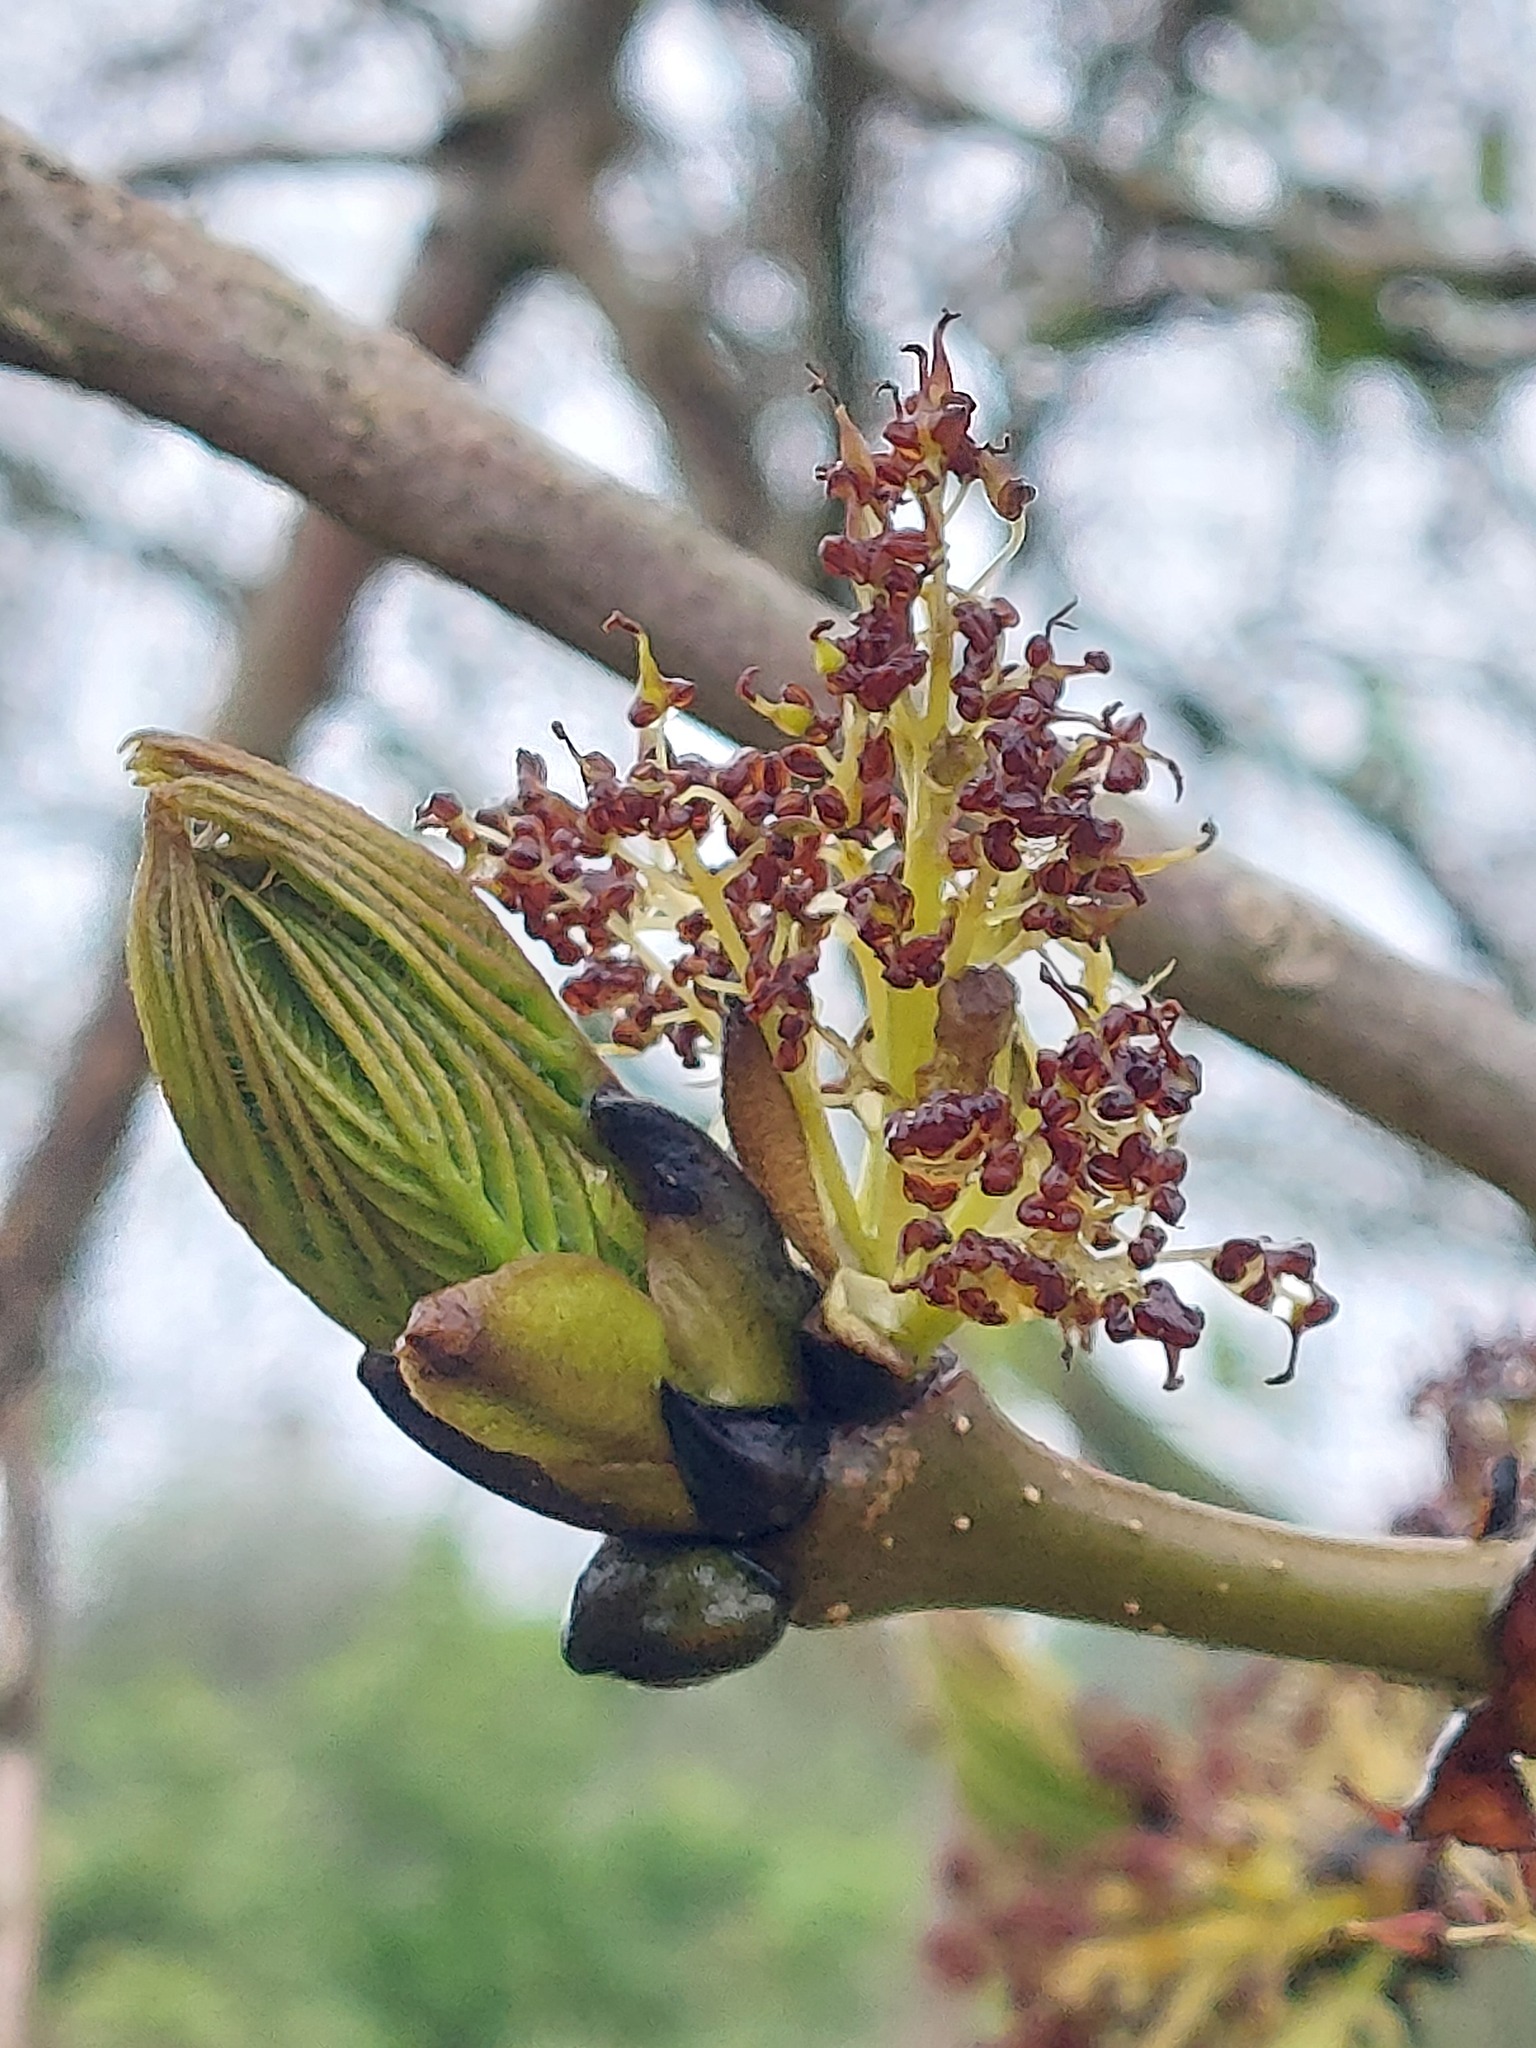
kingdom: Plantae
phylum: Tracheophyta
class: Magnoliopsida
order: Lamiales
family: Oleaceae
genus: Fraxinus
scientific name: Fraxinus excelsior
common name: European ash
